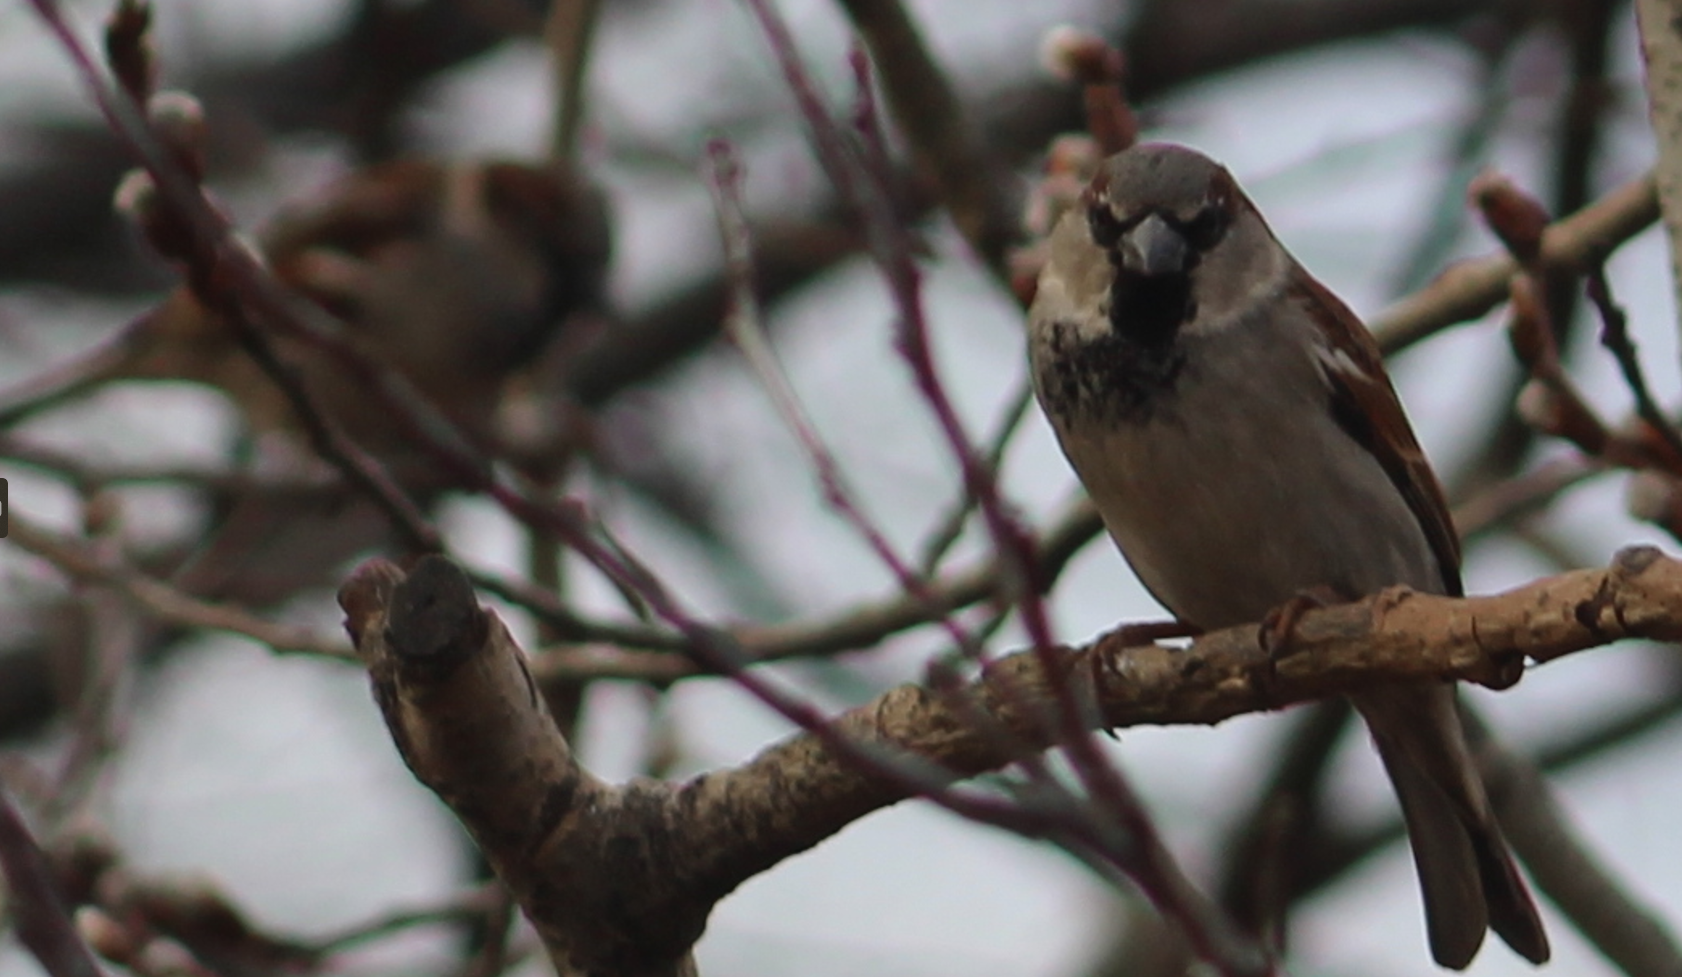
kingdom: Animalia
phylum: Chordata
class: Aves
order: Passeriformes
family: Passeridae
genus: Passer
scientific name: Passer domesticus
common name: House sparrow
